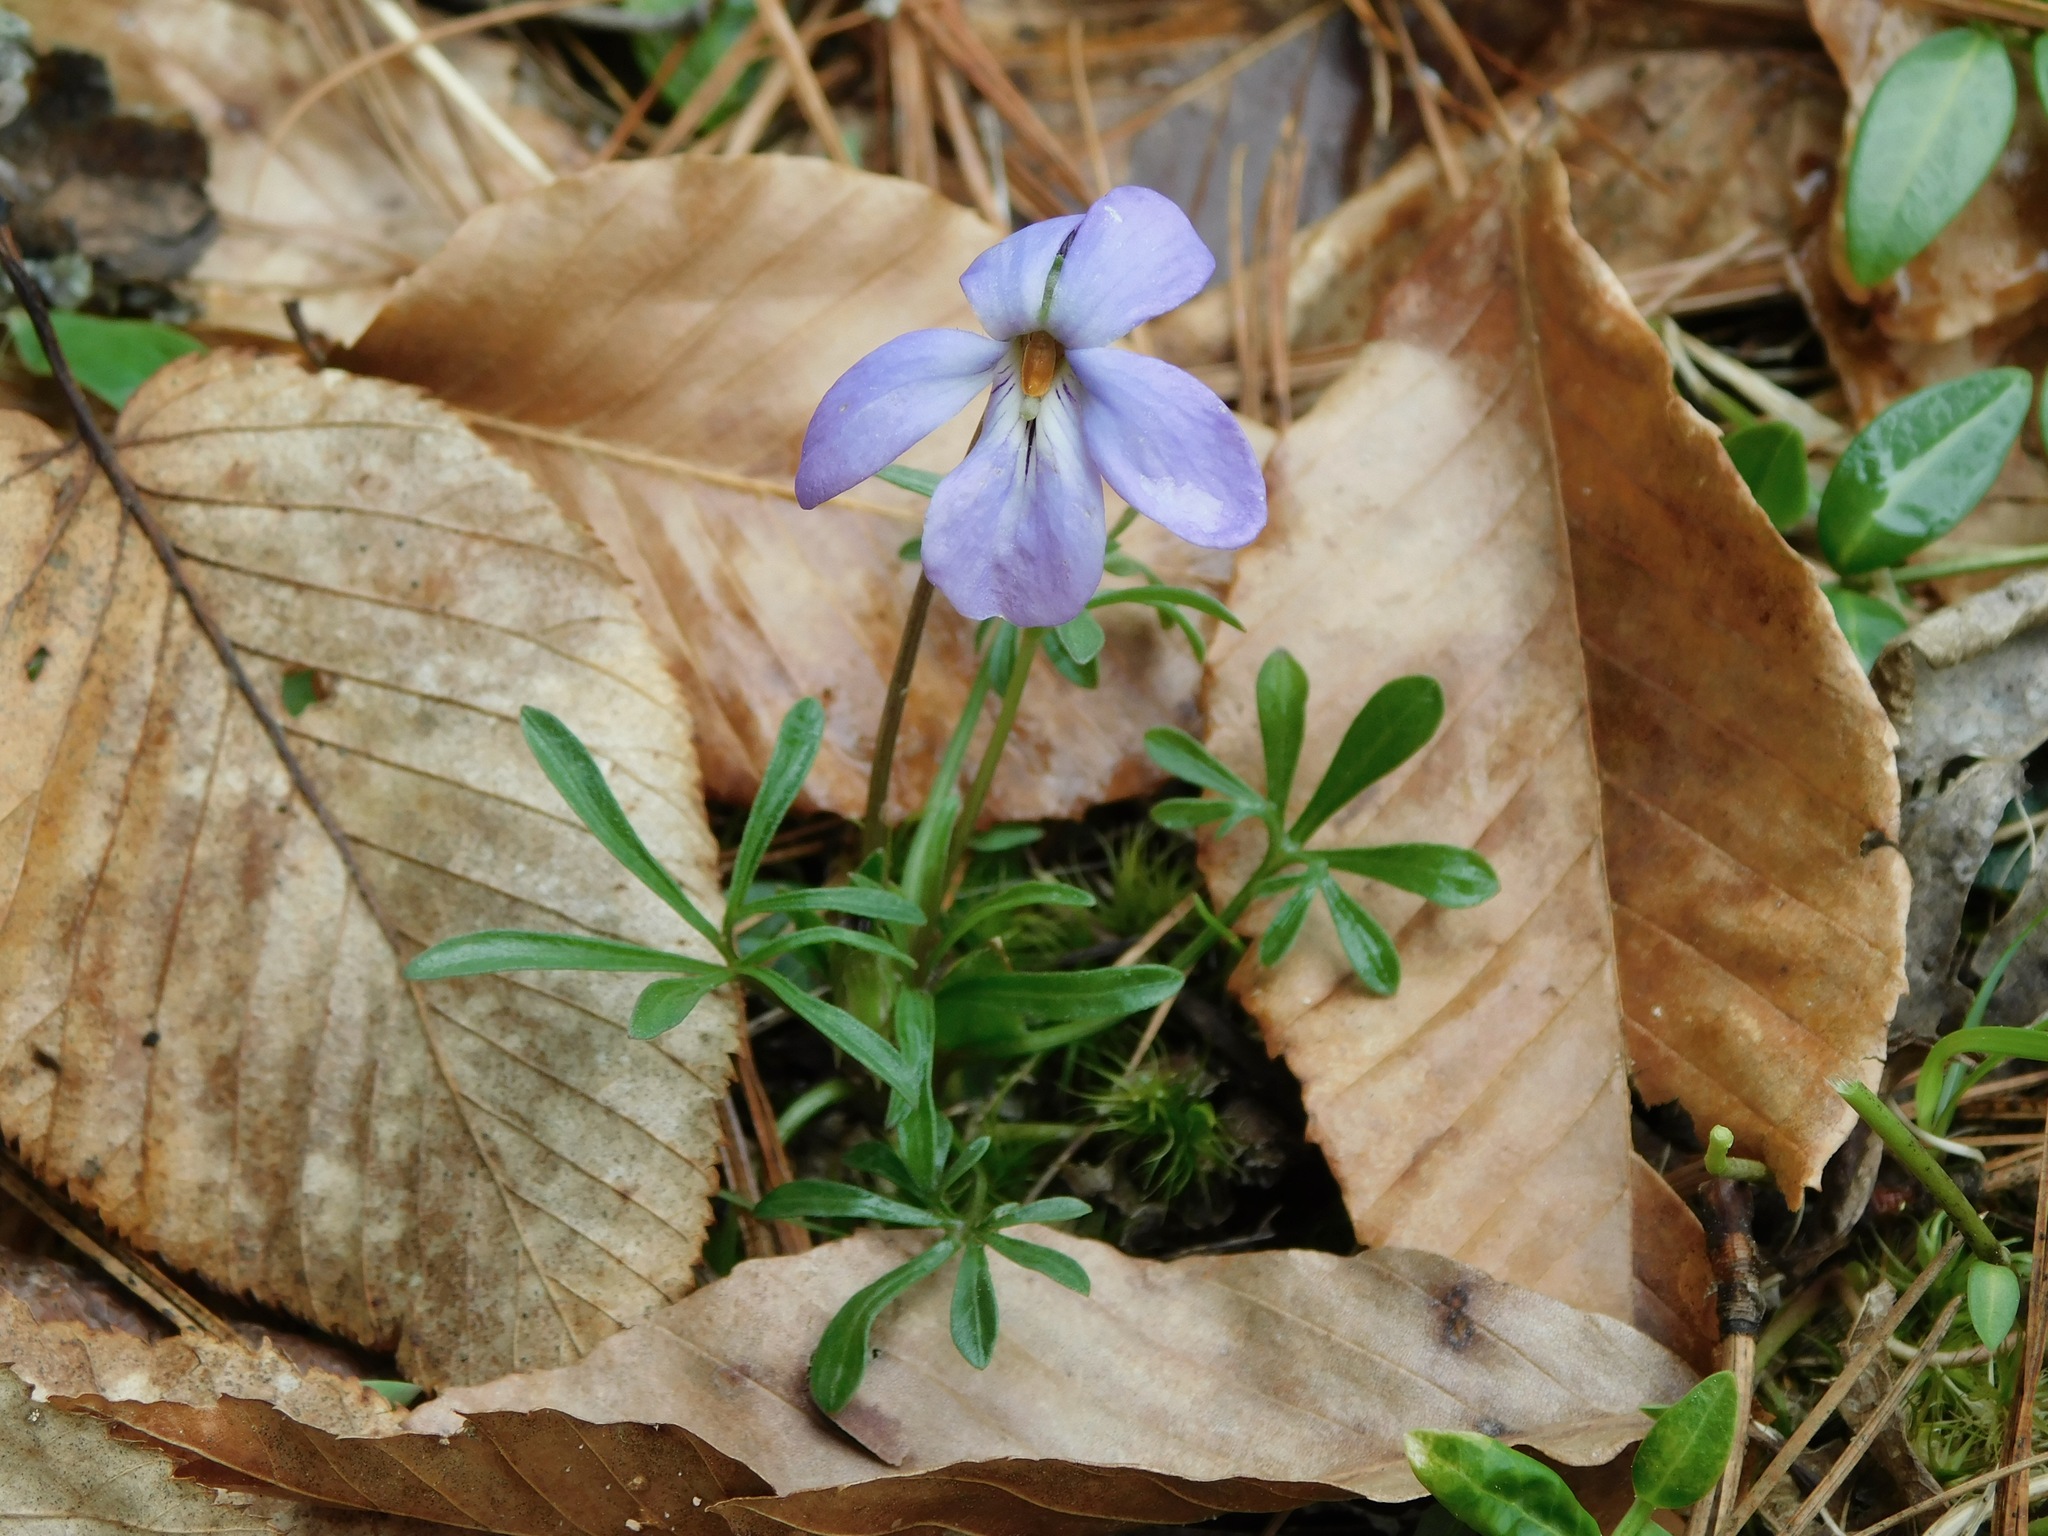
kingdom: Plantae
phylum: Tracheophyta
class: Magnoliopsida
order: Malpighiales
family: Violaceae
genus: Viola
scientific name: Viola pedata
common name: Pansy violet
